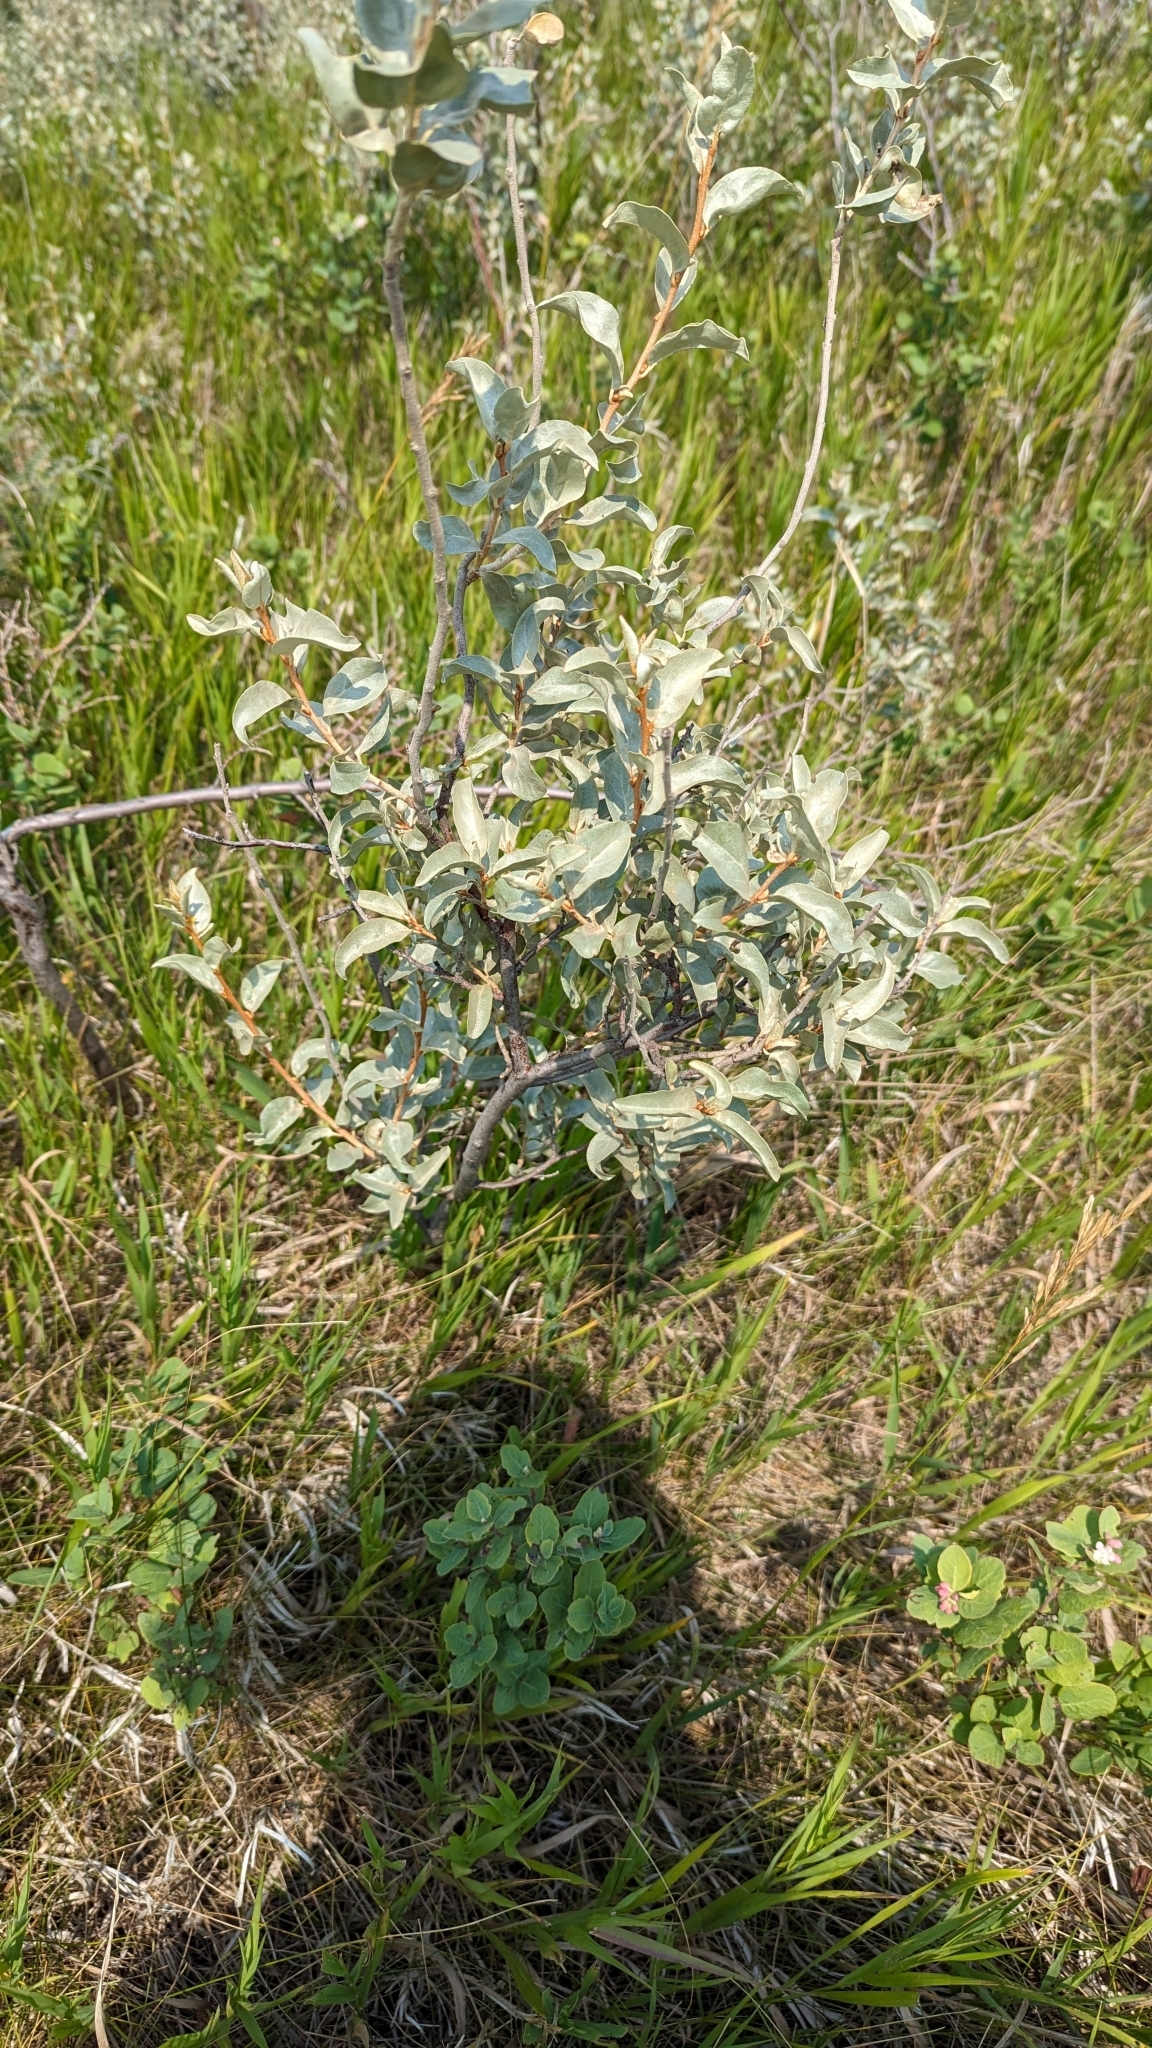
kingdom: Plantae
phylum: Tracheophyta
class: Magnoliopsida
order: Rosales
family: Elaeagnaceae
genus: Elaeagnus
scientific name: Elaeagnus commutata
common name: Silverberry
